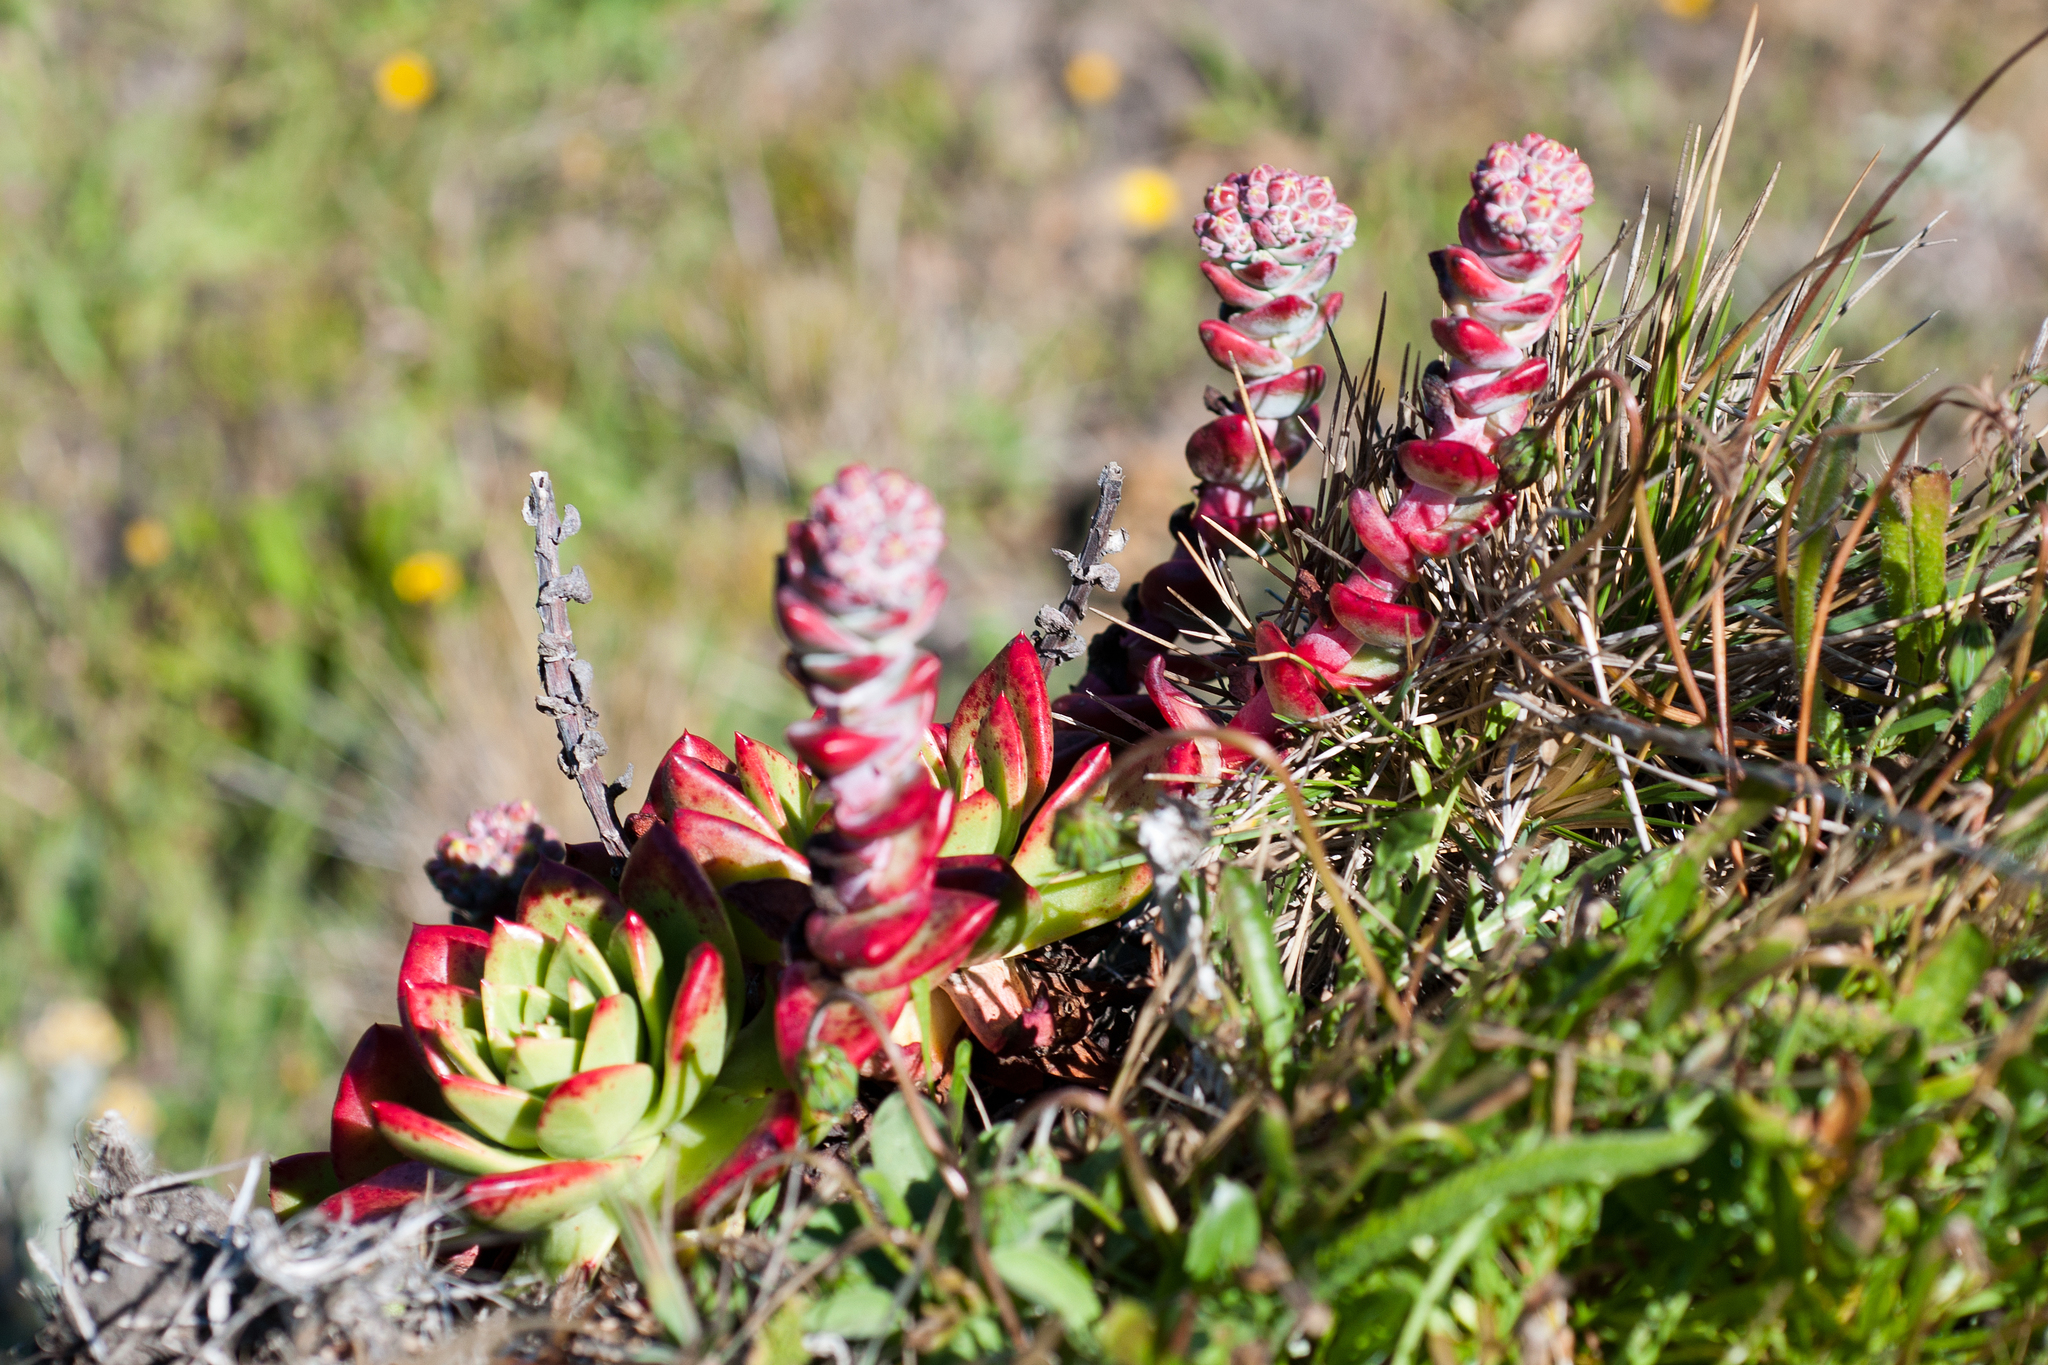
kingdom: Plantae
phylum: Tracheophyta
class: Magnoliopsida
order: Saxifragales
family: Crassulaceae
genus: Dudleya
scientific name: Dudleya farinosa
